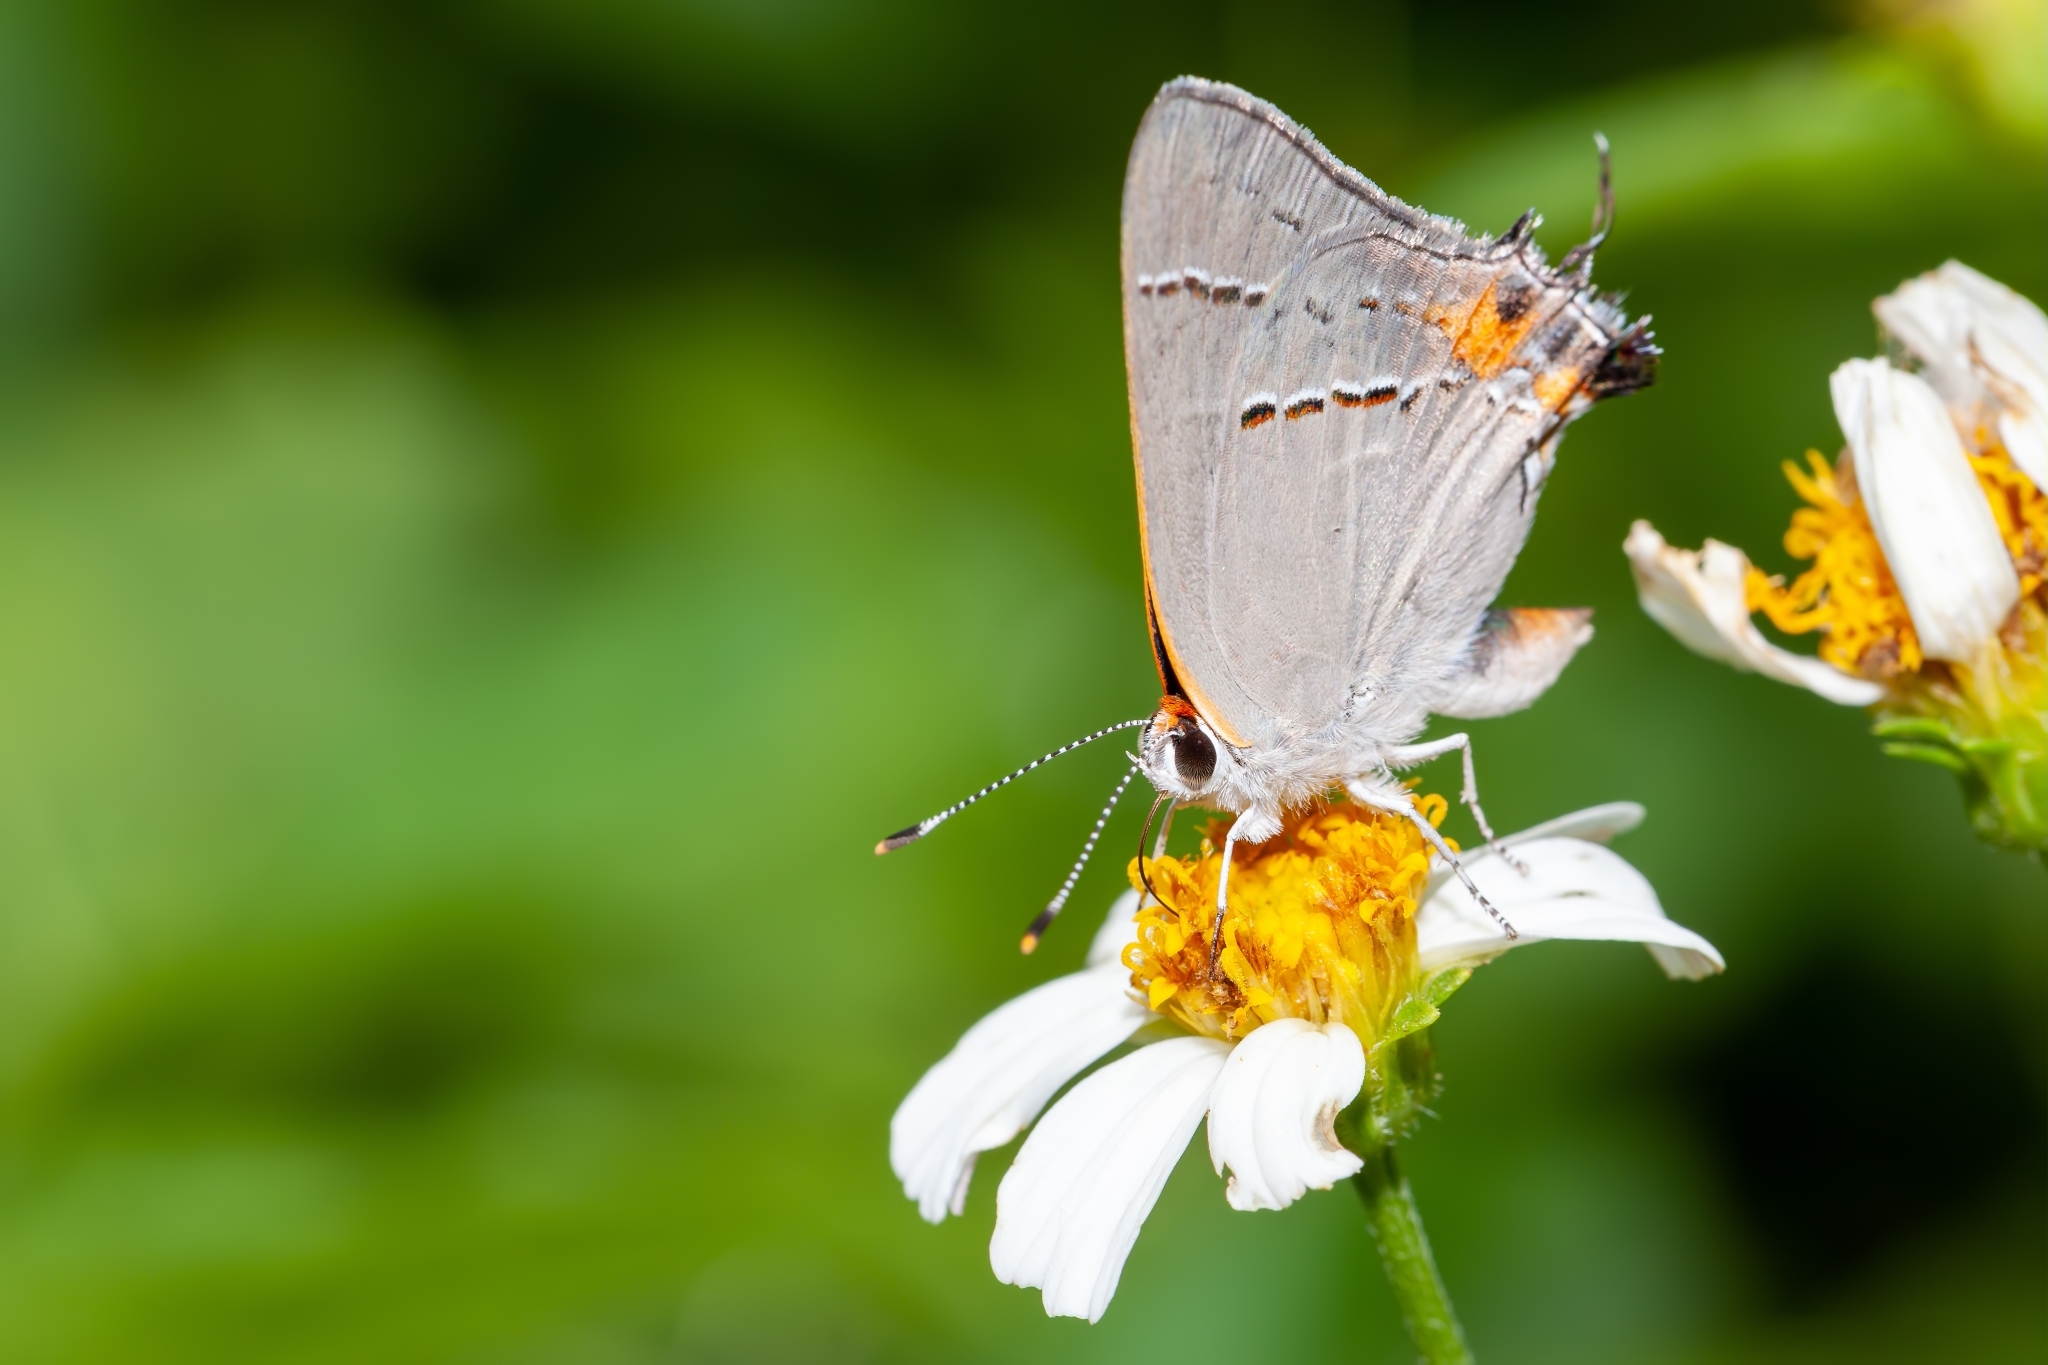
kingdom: Animalia
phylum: Arthropoda
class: Insecta
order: Lepidoptera
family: Lycaenidae
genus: Strymon
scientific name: Strymon melinus
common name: Gray hairstreak
